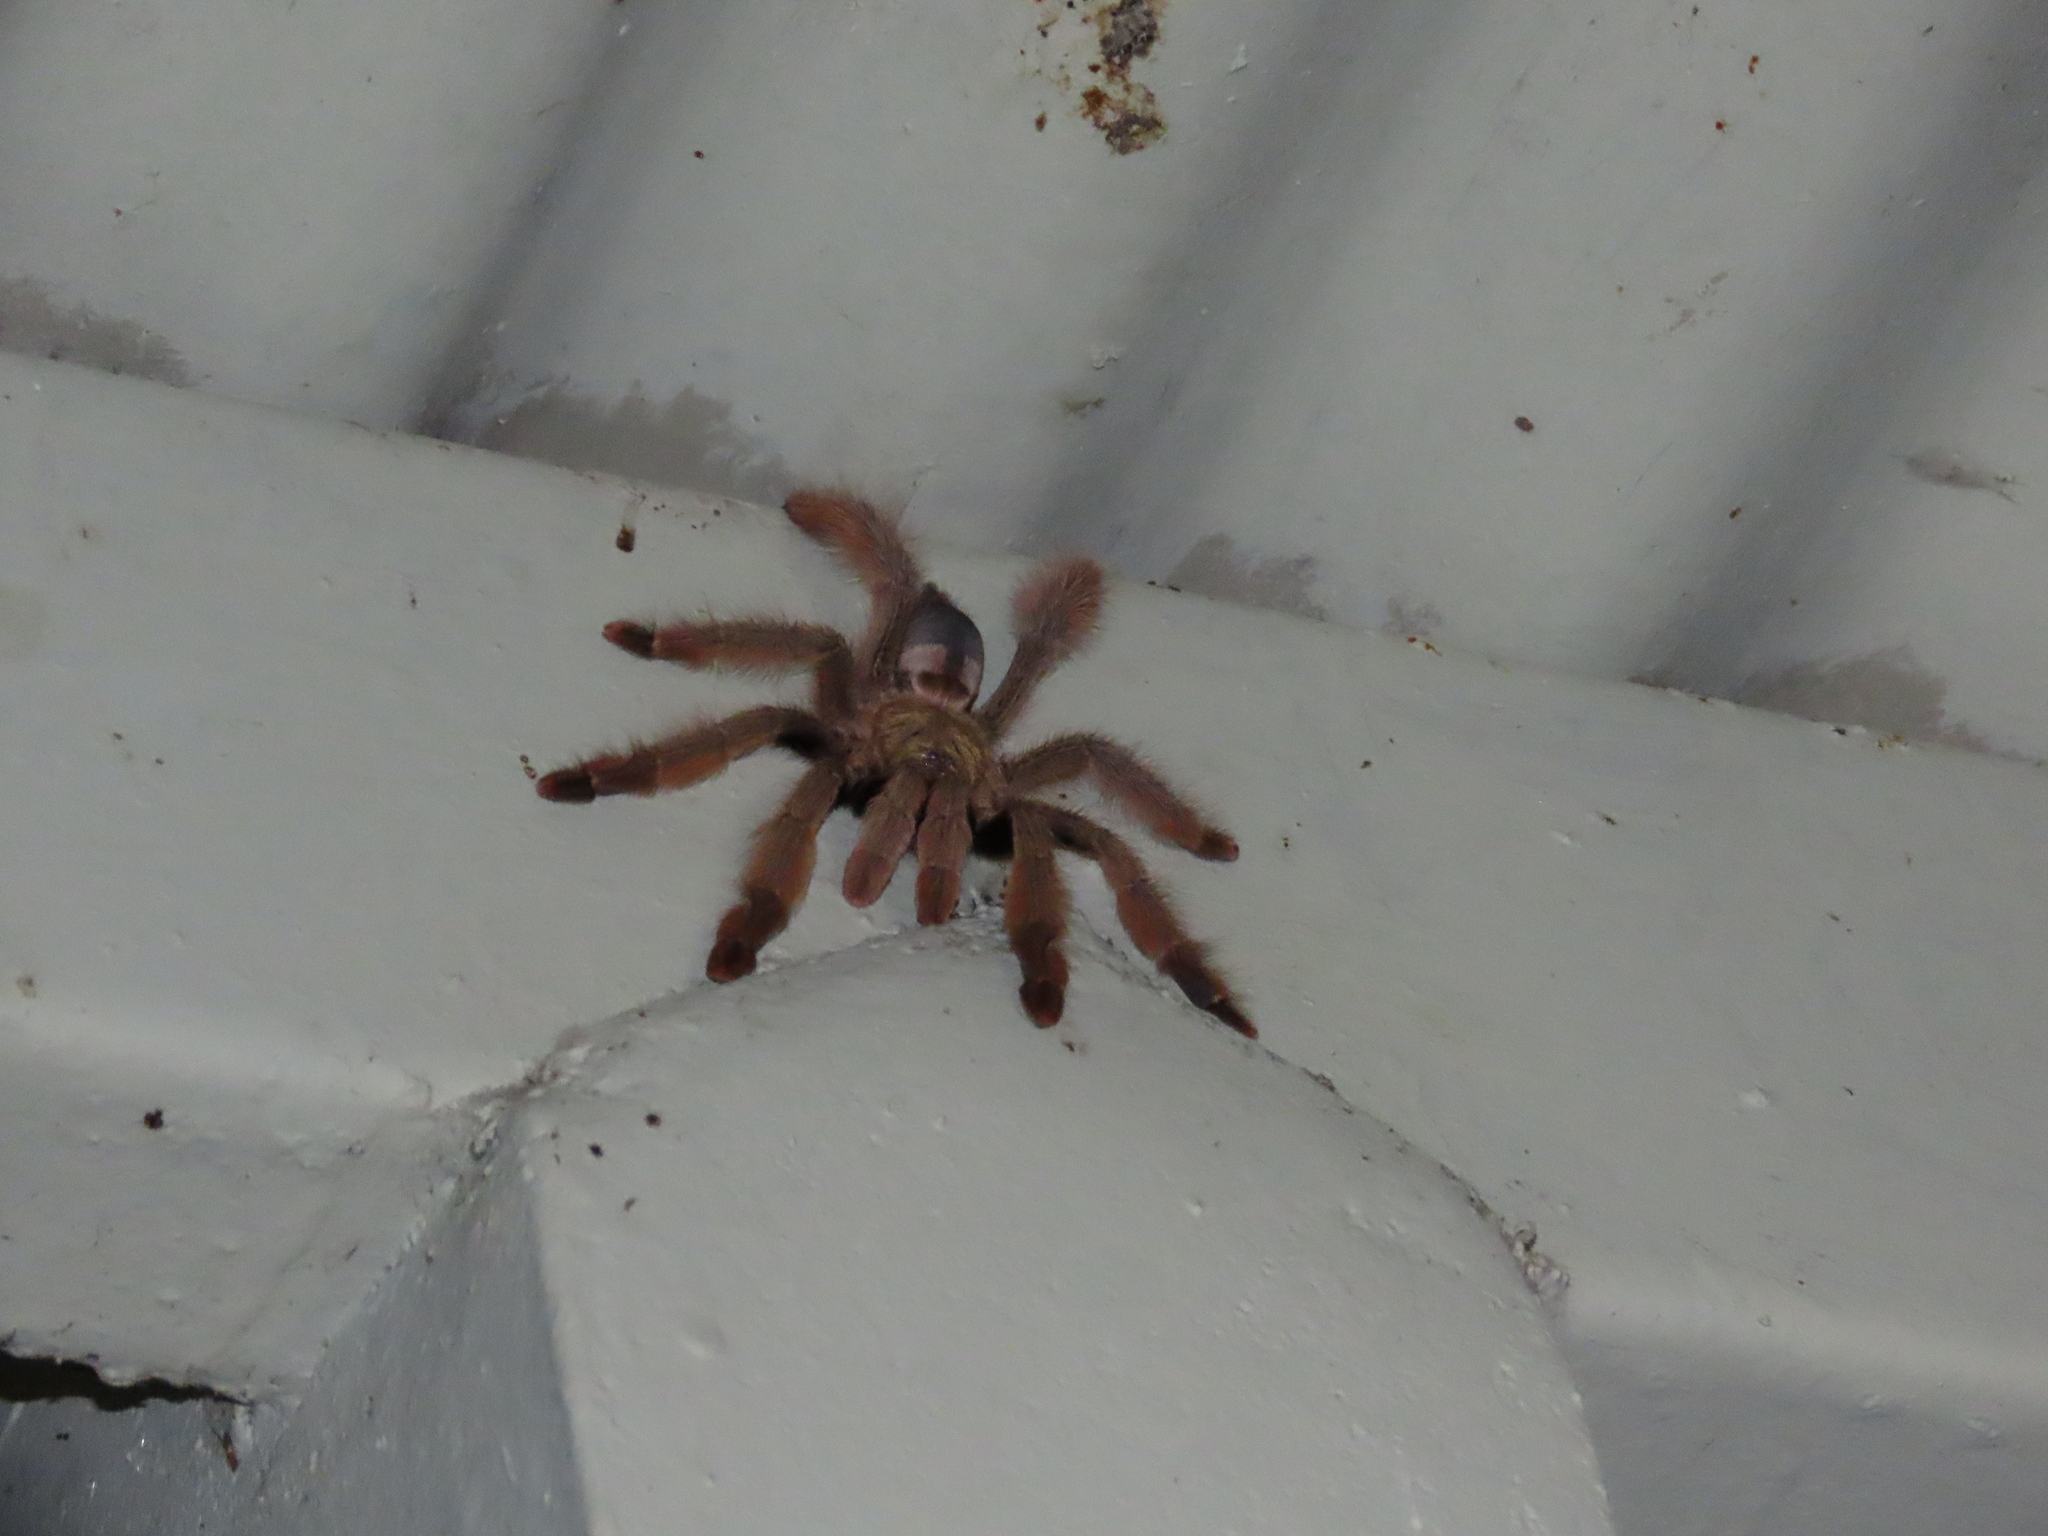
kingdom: Animalia
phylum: Arthropoda
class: Arachnida
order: Araneae
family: Theraphosidae
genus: Psalmopoeus
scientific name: Psalmopoeus pulcher
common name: Tarantula spiders
